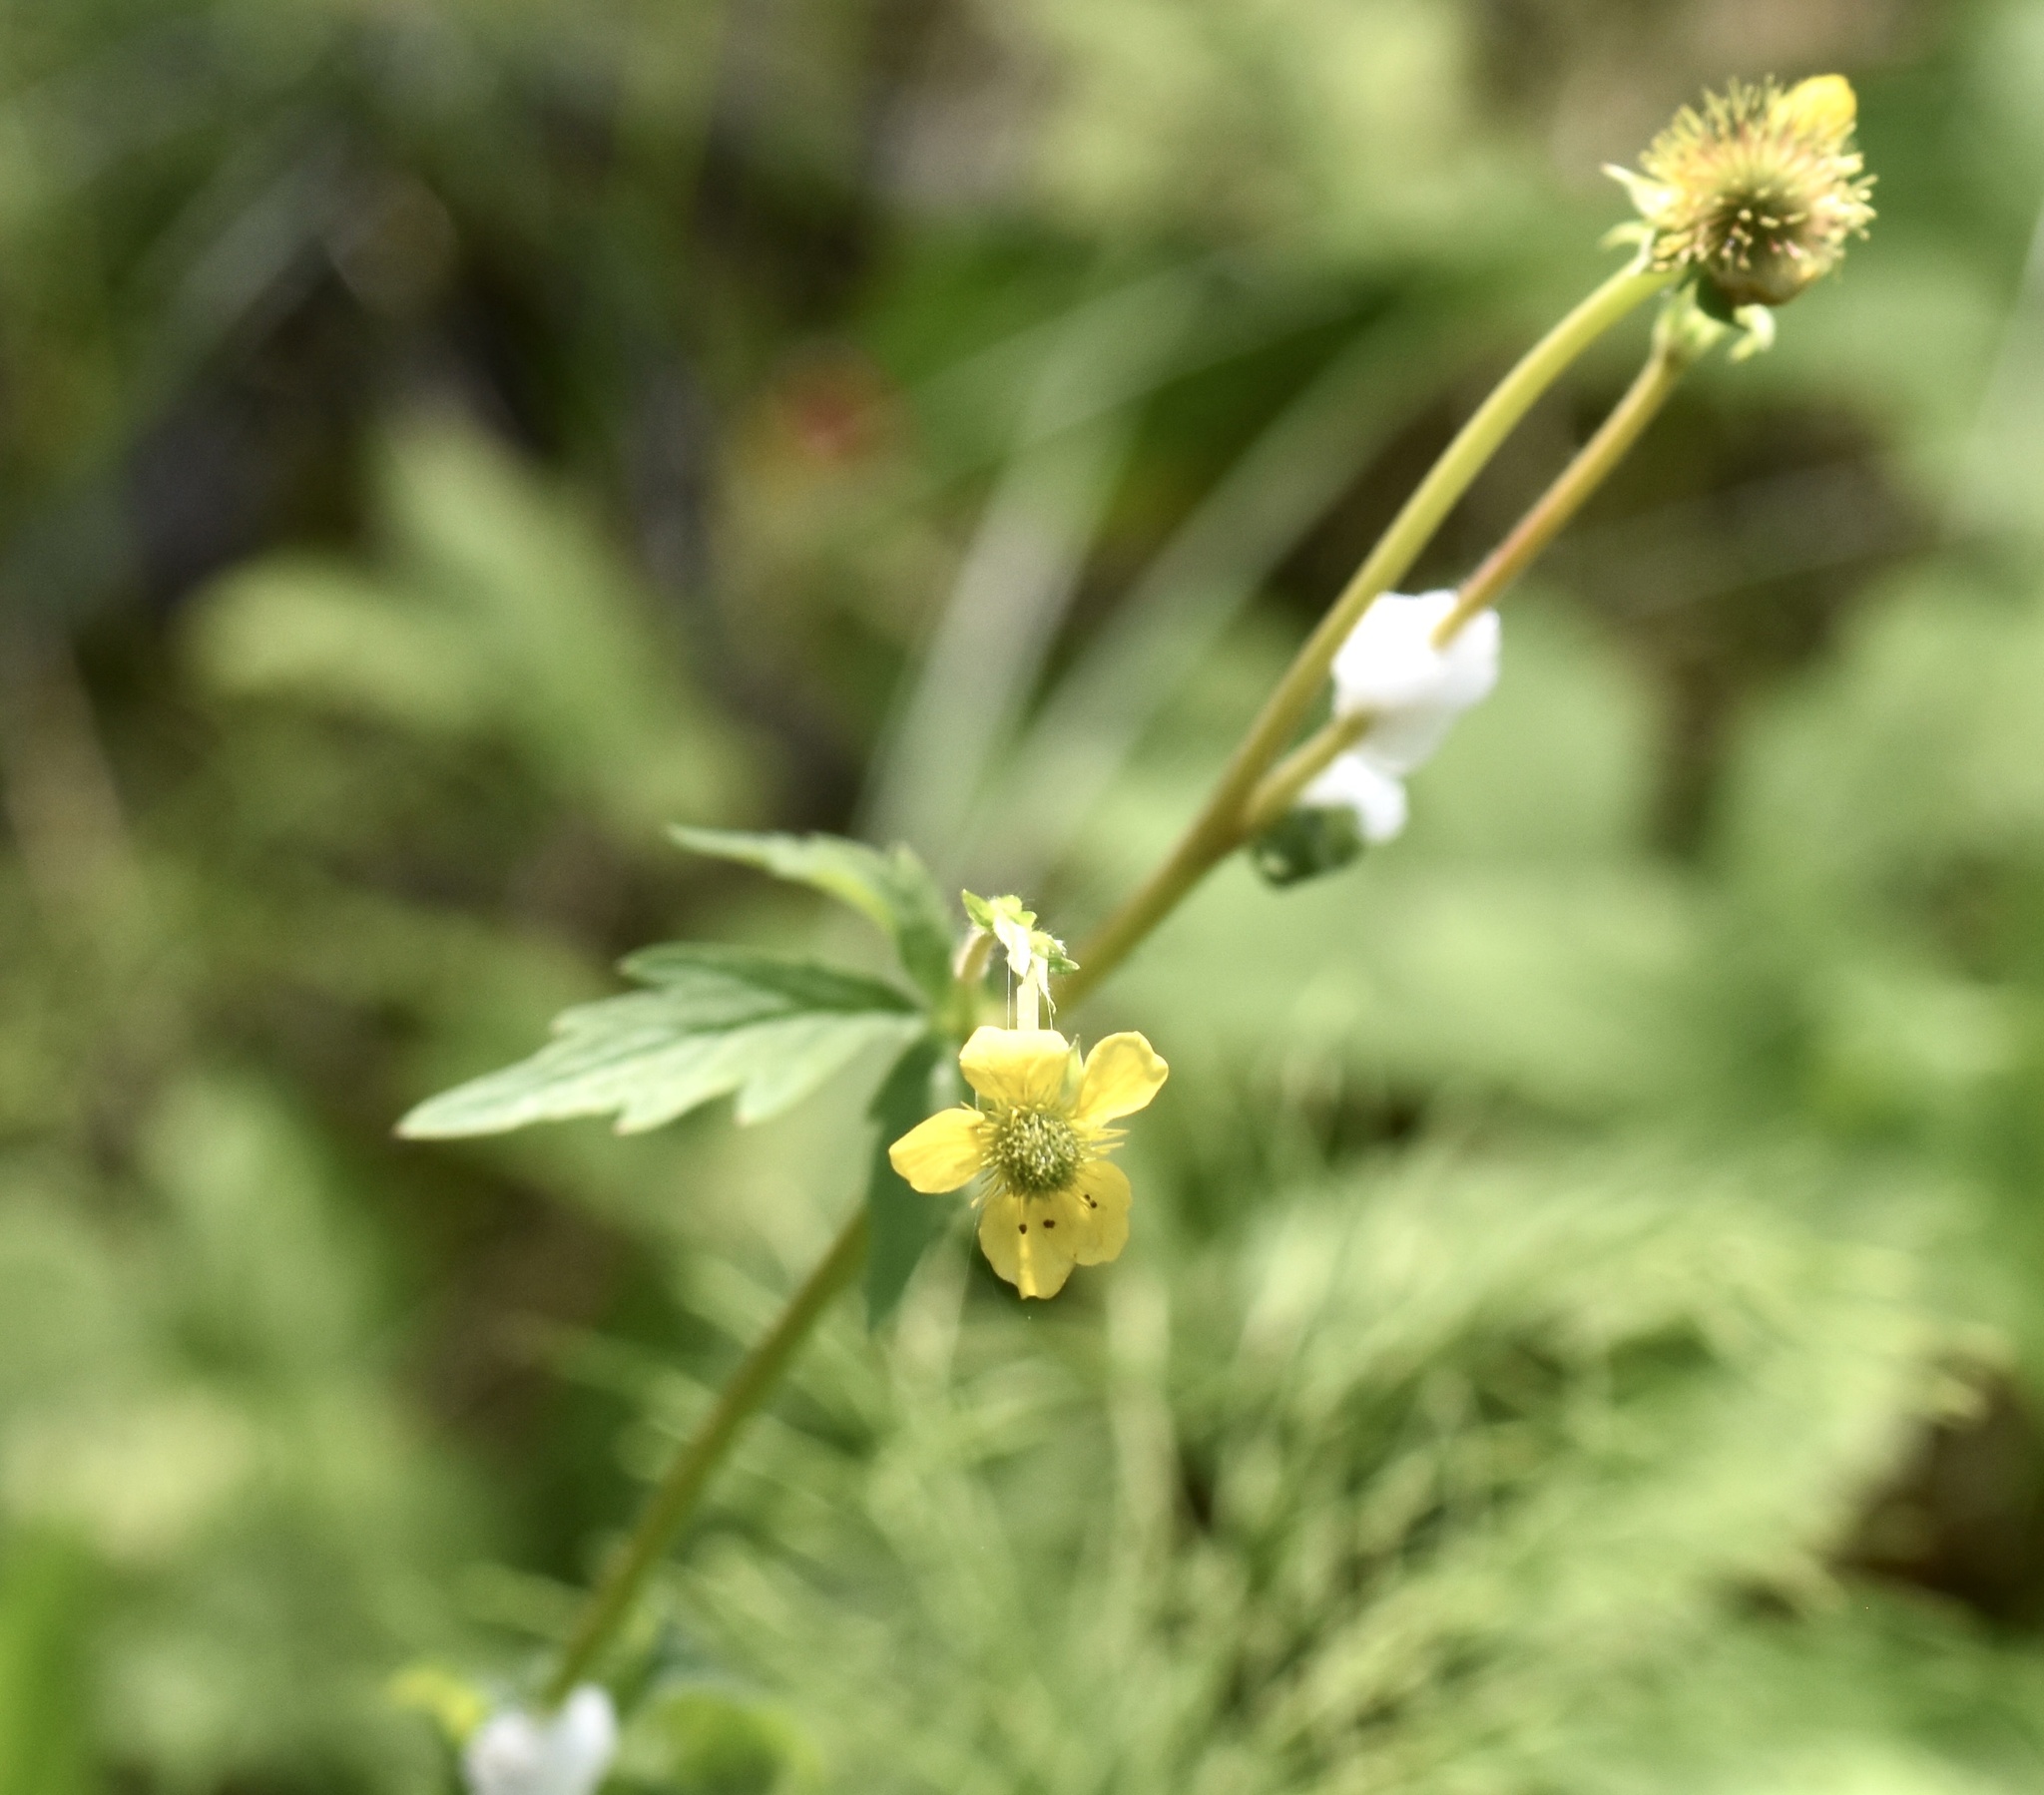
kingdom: Plantae
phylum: Tracheophyta
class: Magnoliopsida
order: Rosales
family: Rosaceae
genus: Geum
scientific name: Geum aleppicum
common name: Yellow avens
